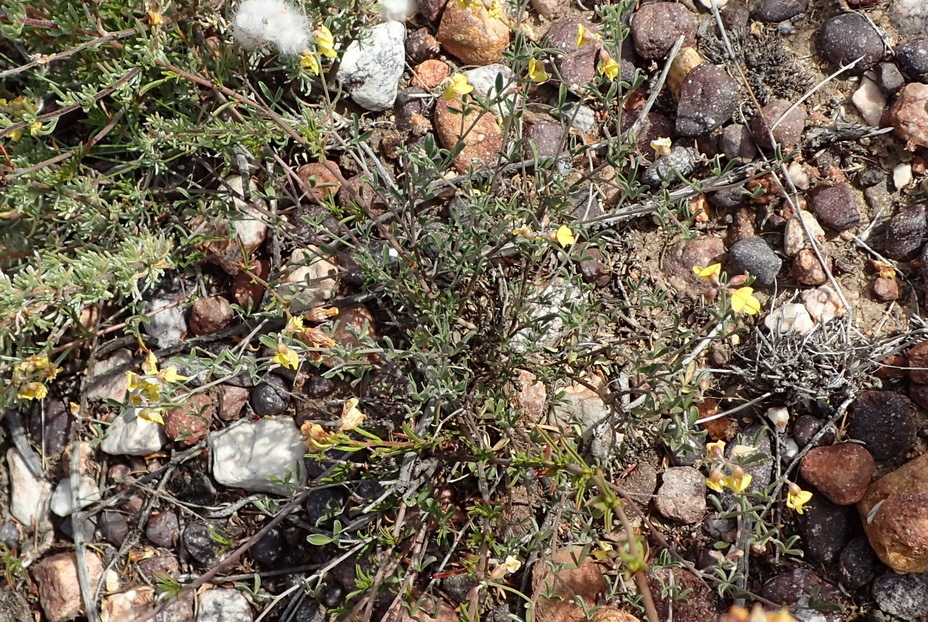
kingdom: Plantae
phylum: Tracheophyta
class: Magnoliopsida
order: Fabales
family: Fabaceae
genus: Lotononis
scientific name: Lotononis acocksii
